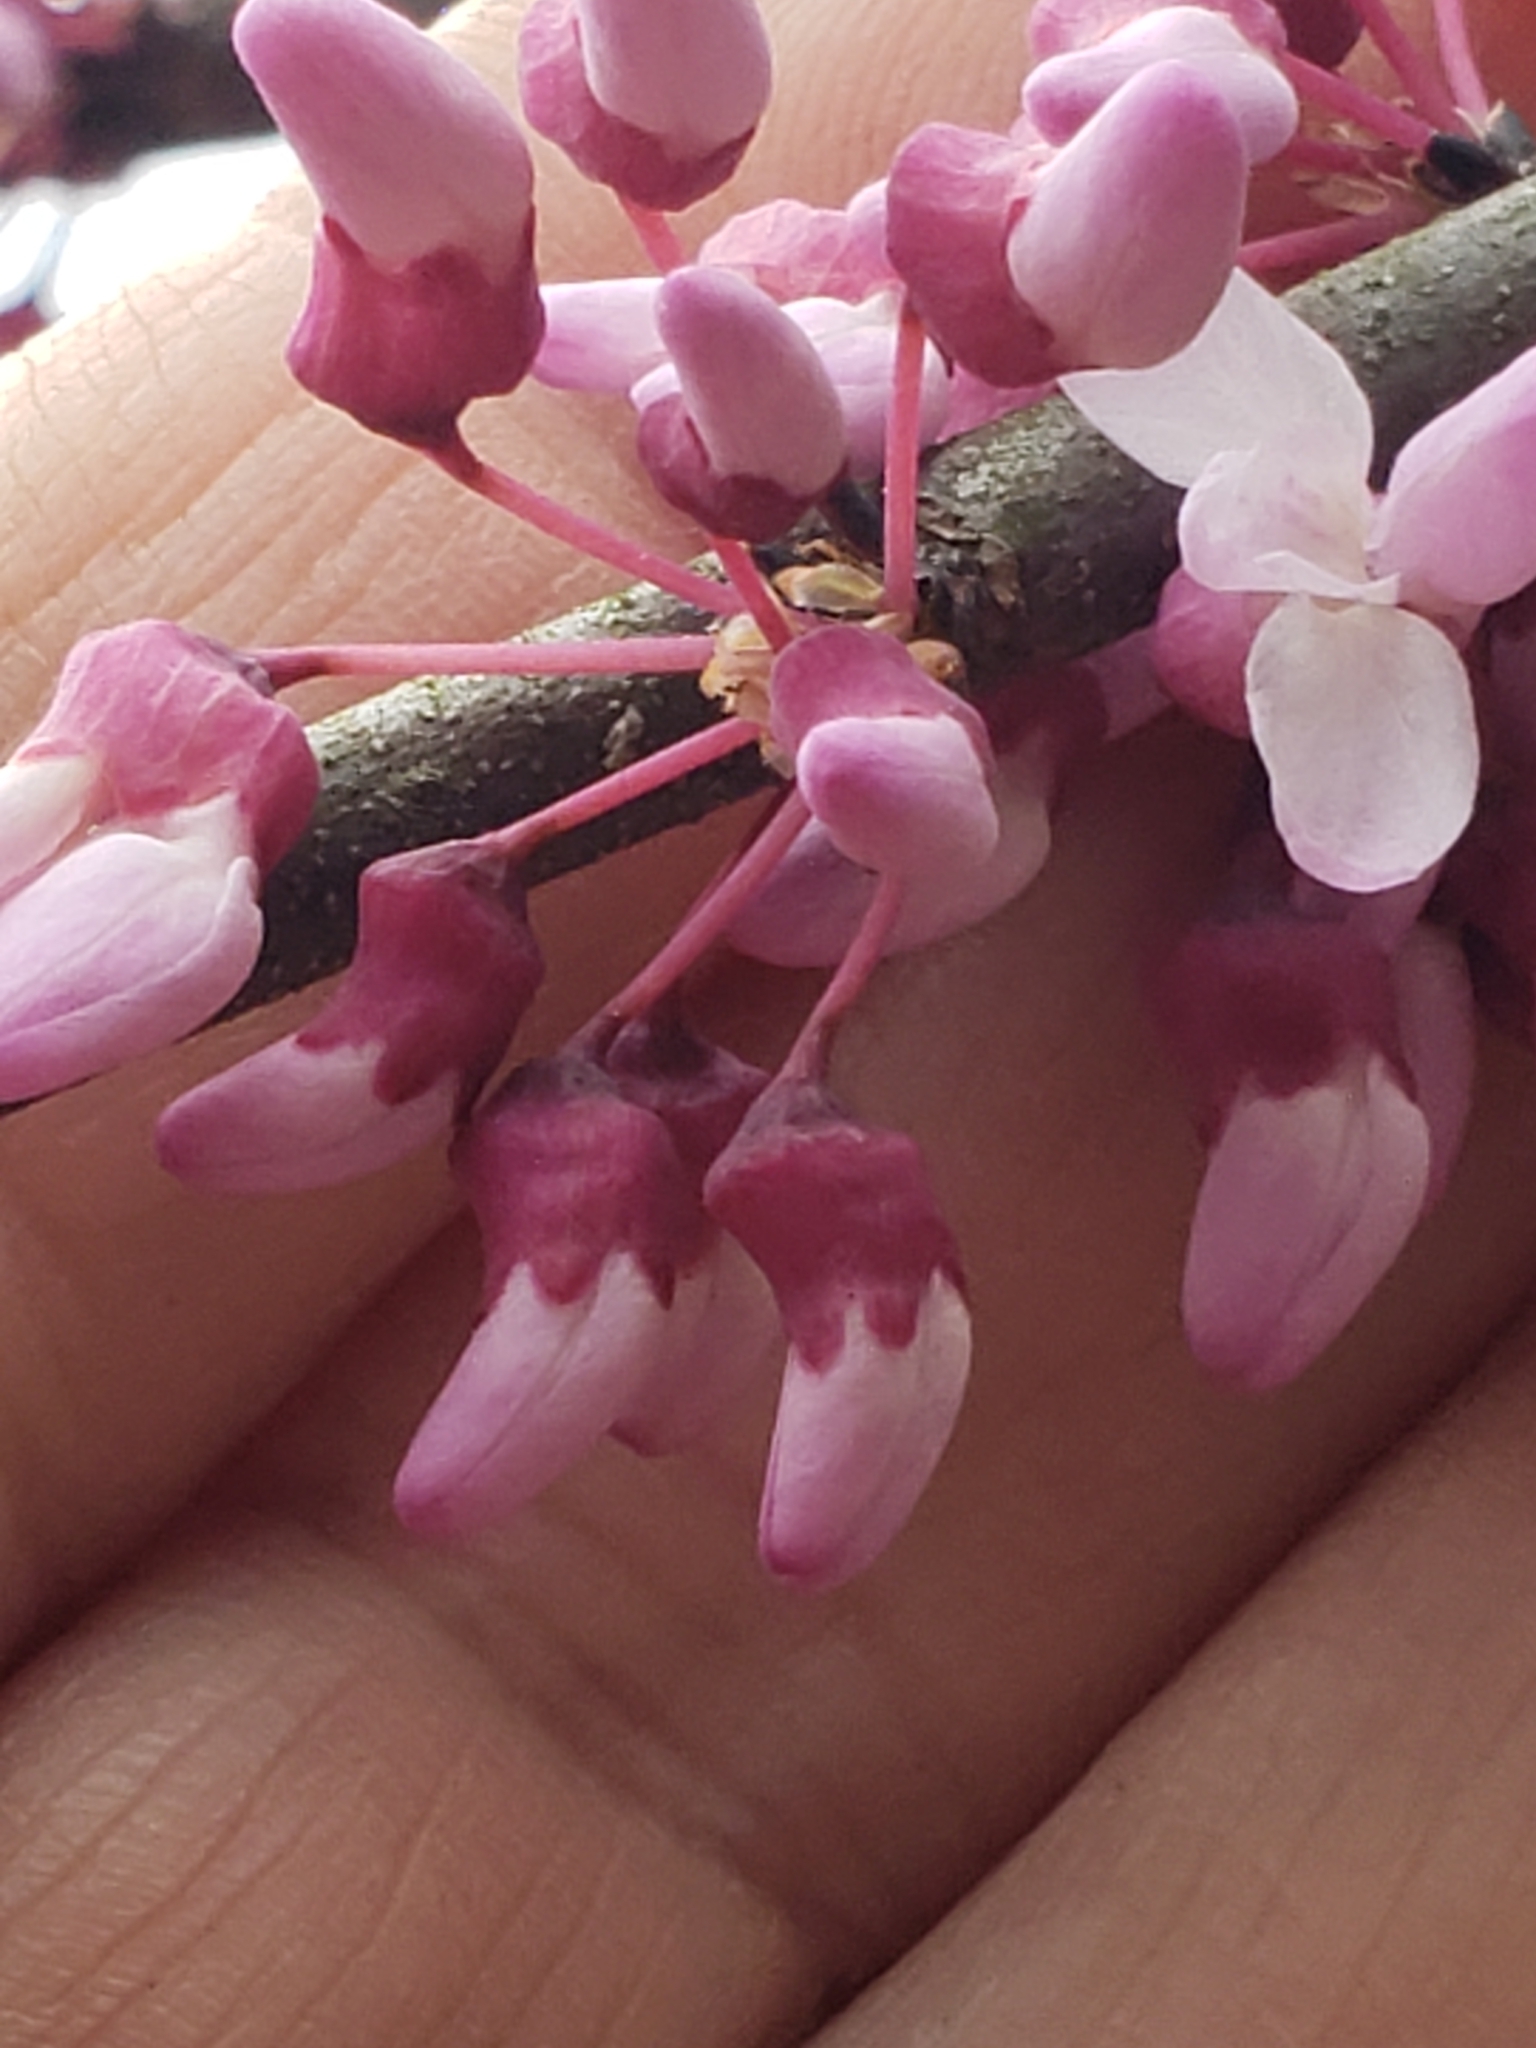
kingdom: Plantae
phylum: Tracheophyta
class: Magnoliopsida
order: Fabales
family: Fabaceae
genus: Cercis
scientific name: Cercis canadensis
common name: Eastern redbud
